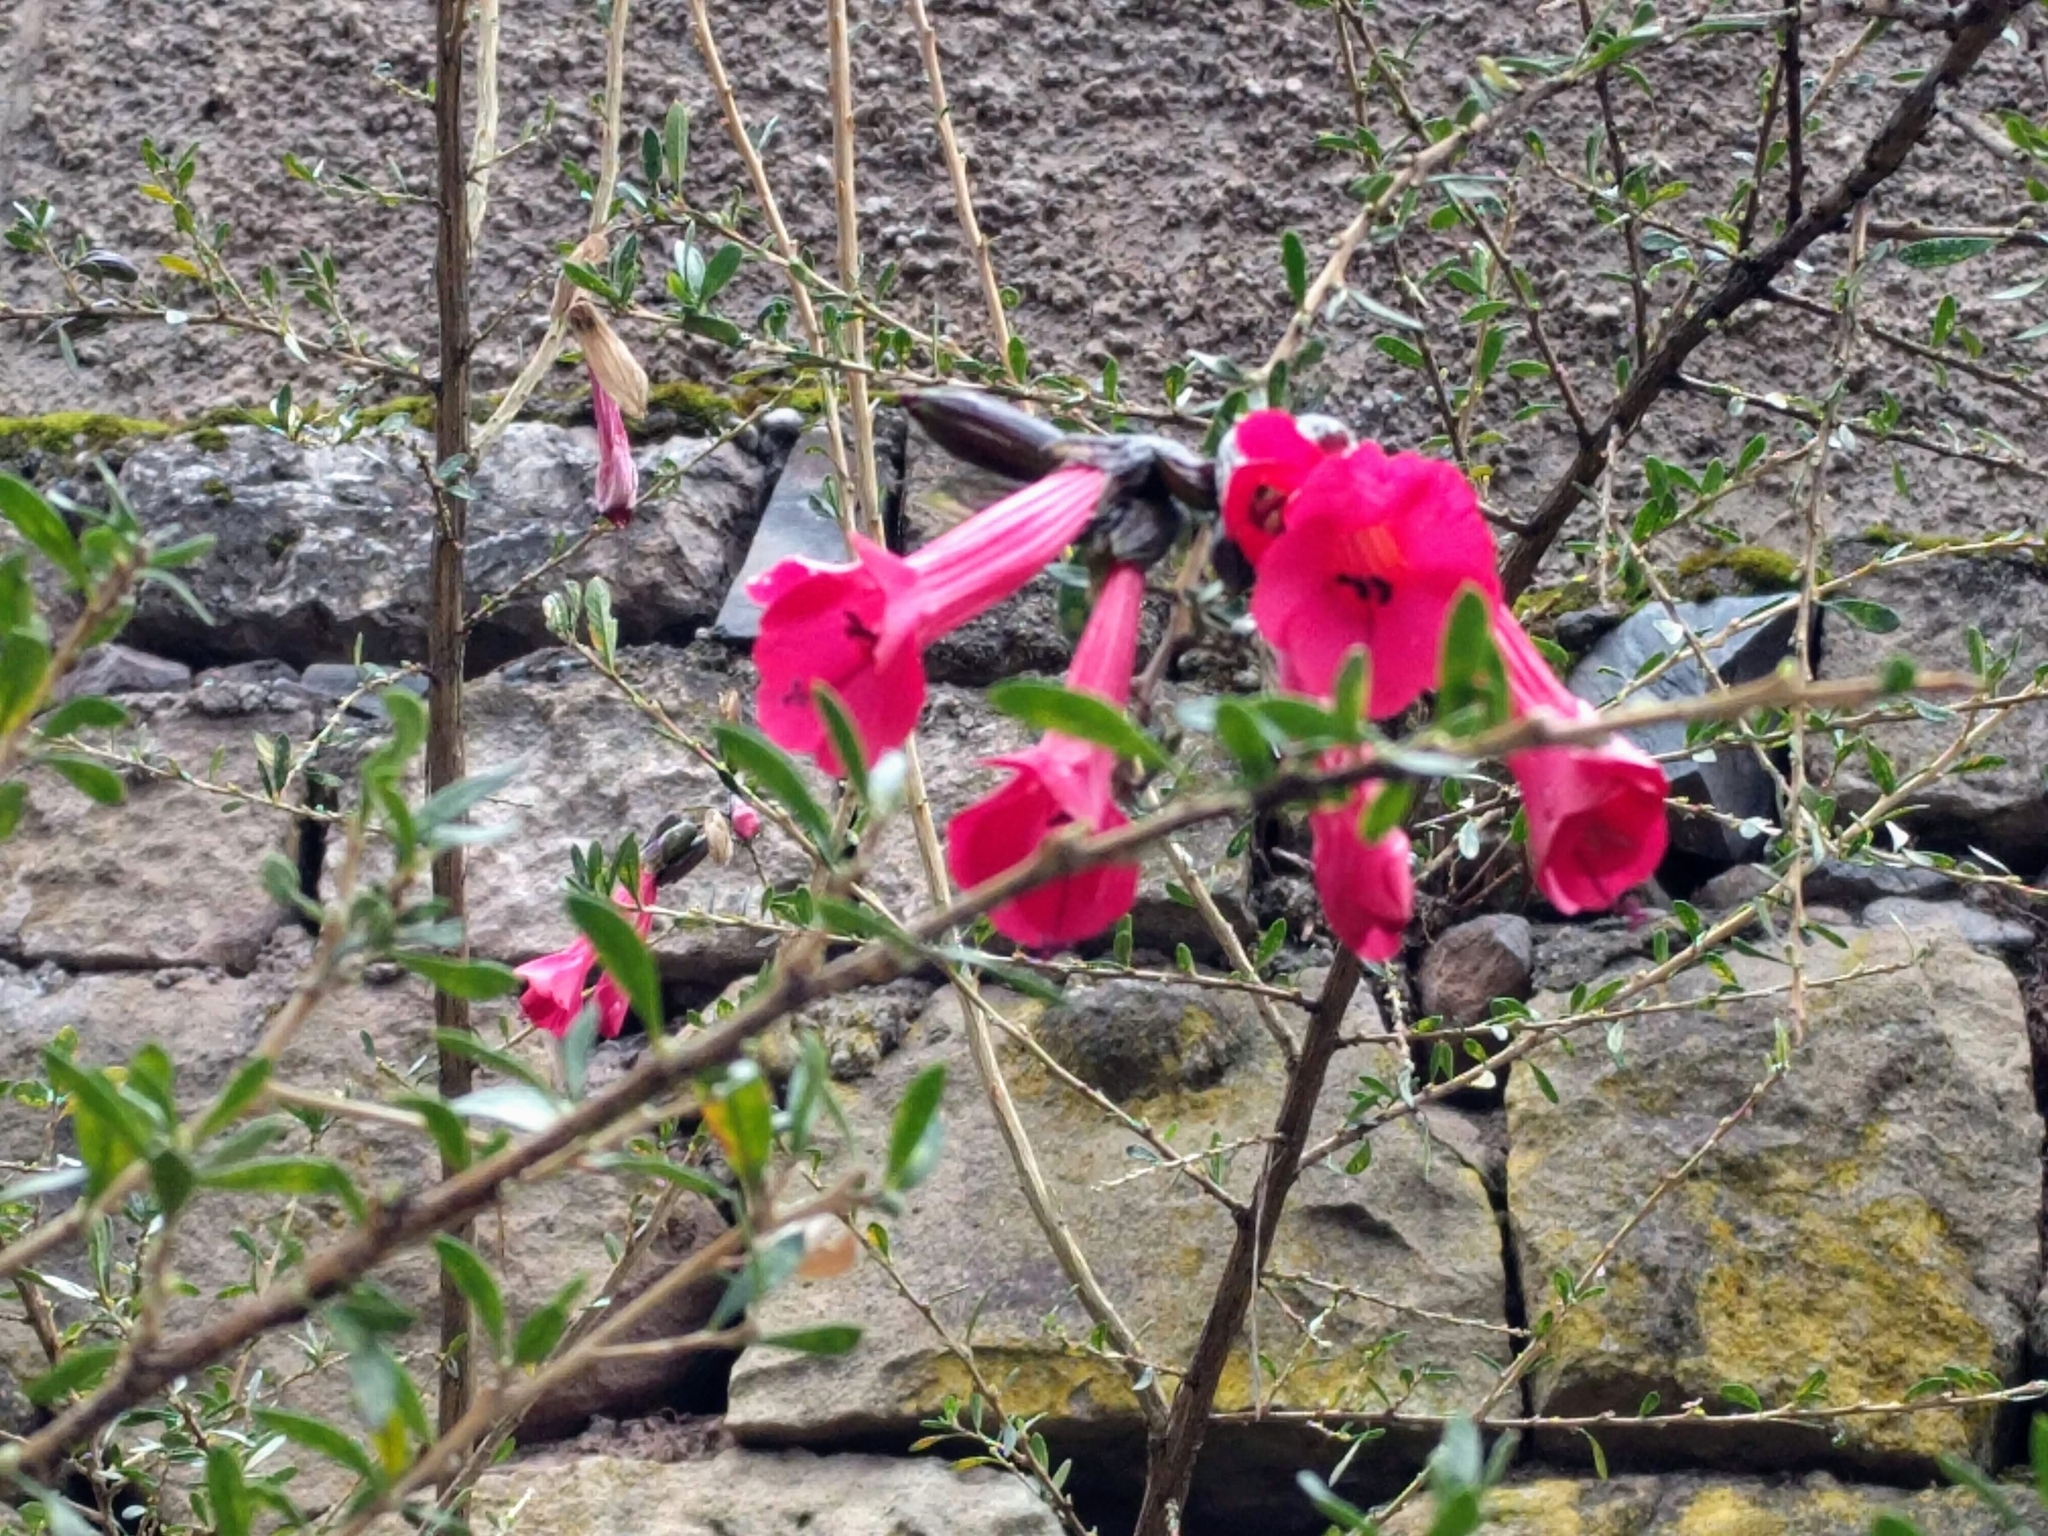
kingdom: Plantae
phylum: Tracheophyta
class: Magnoliopsida
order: Ericales
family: Polemoniaceae
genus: Cantua
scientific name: Cantua buxifolia
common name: Sacred-flower-of-the-incas
